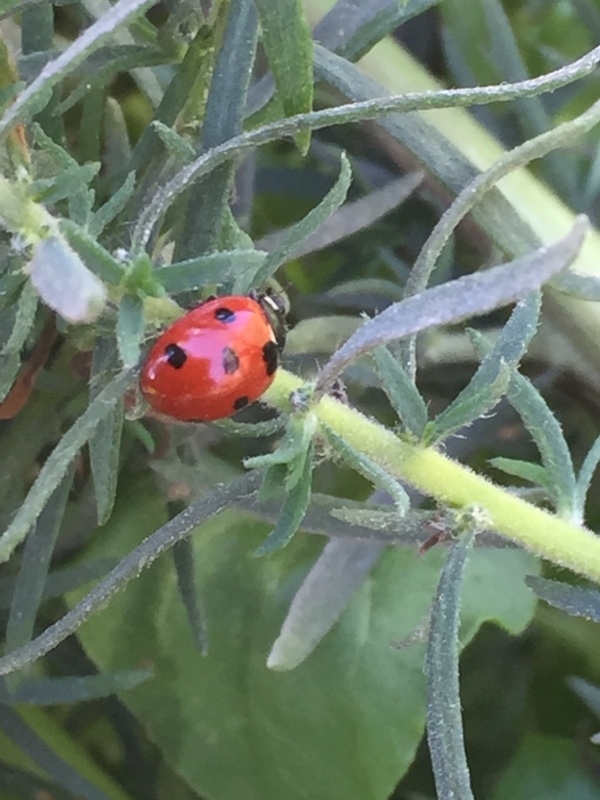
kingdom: Animalia
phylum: Arthropoda
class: Insecta
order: Coleoptera
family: Coccinellidae
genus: Coccinella
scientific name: Coccinella algerica
